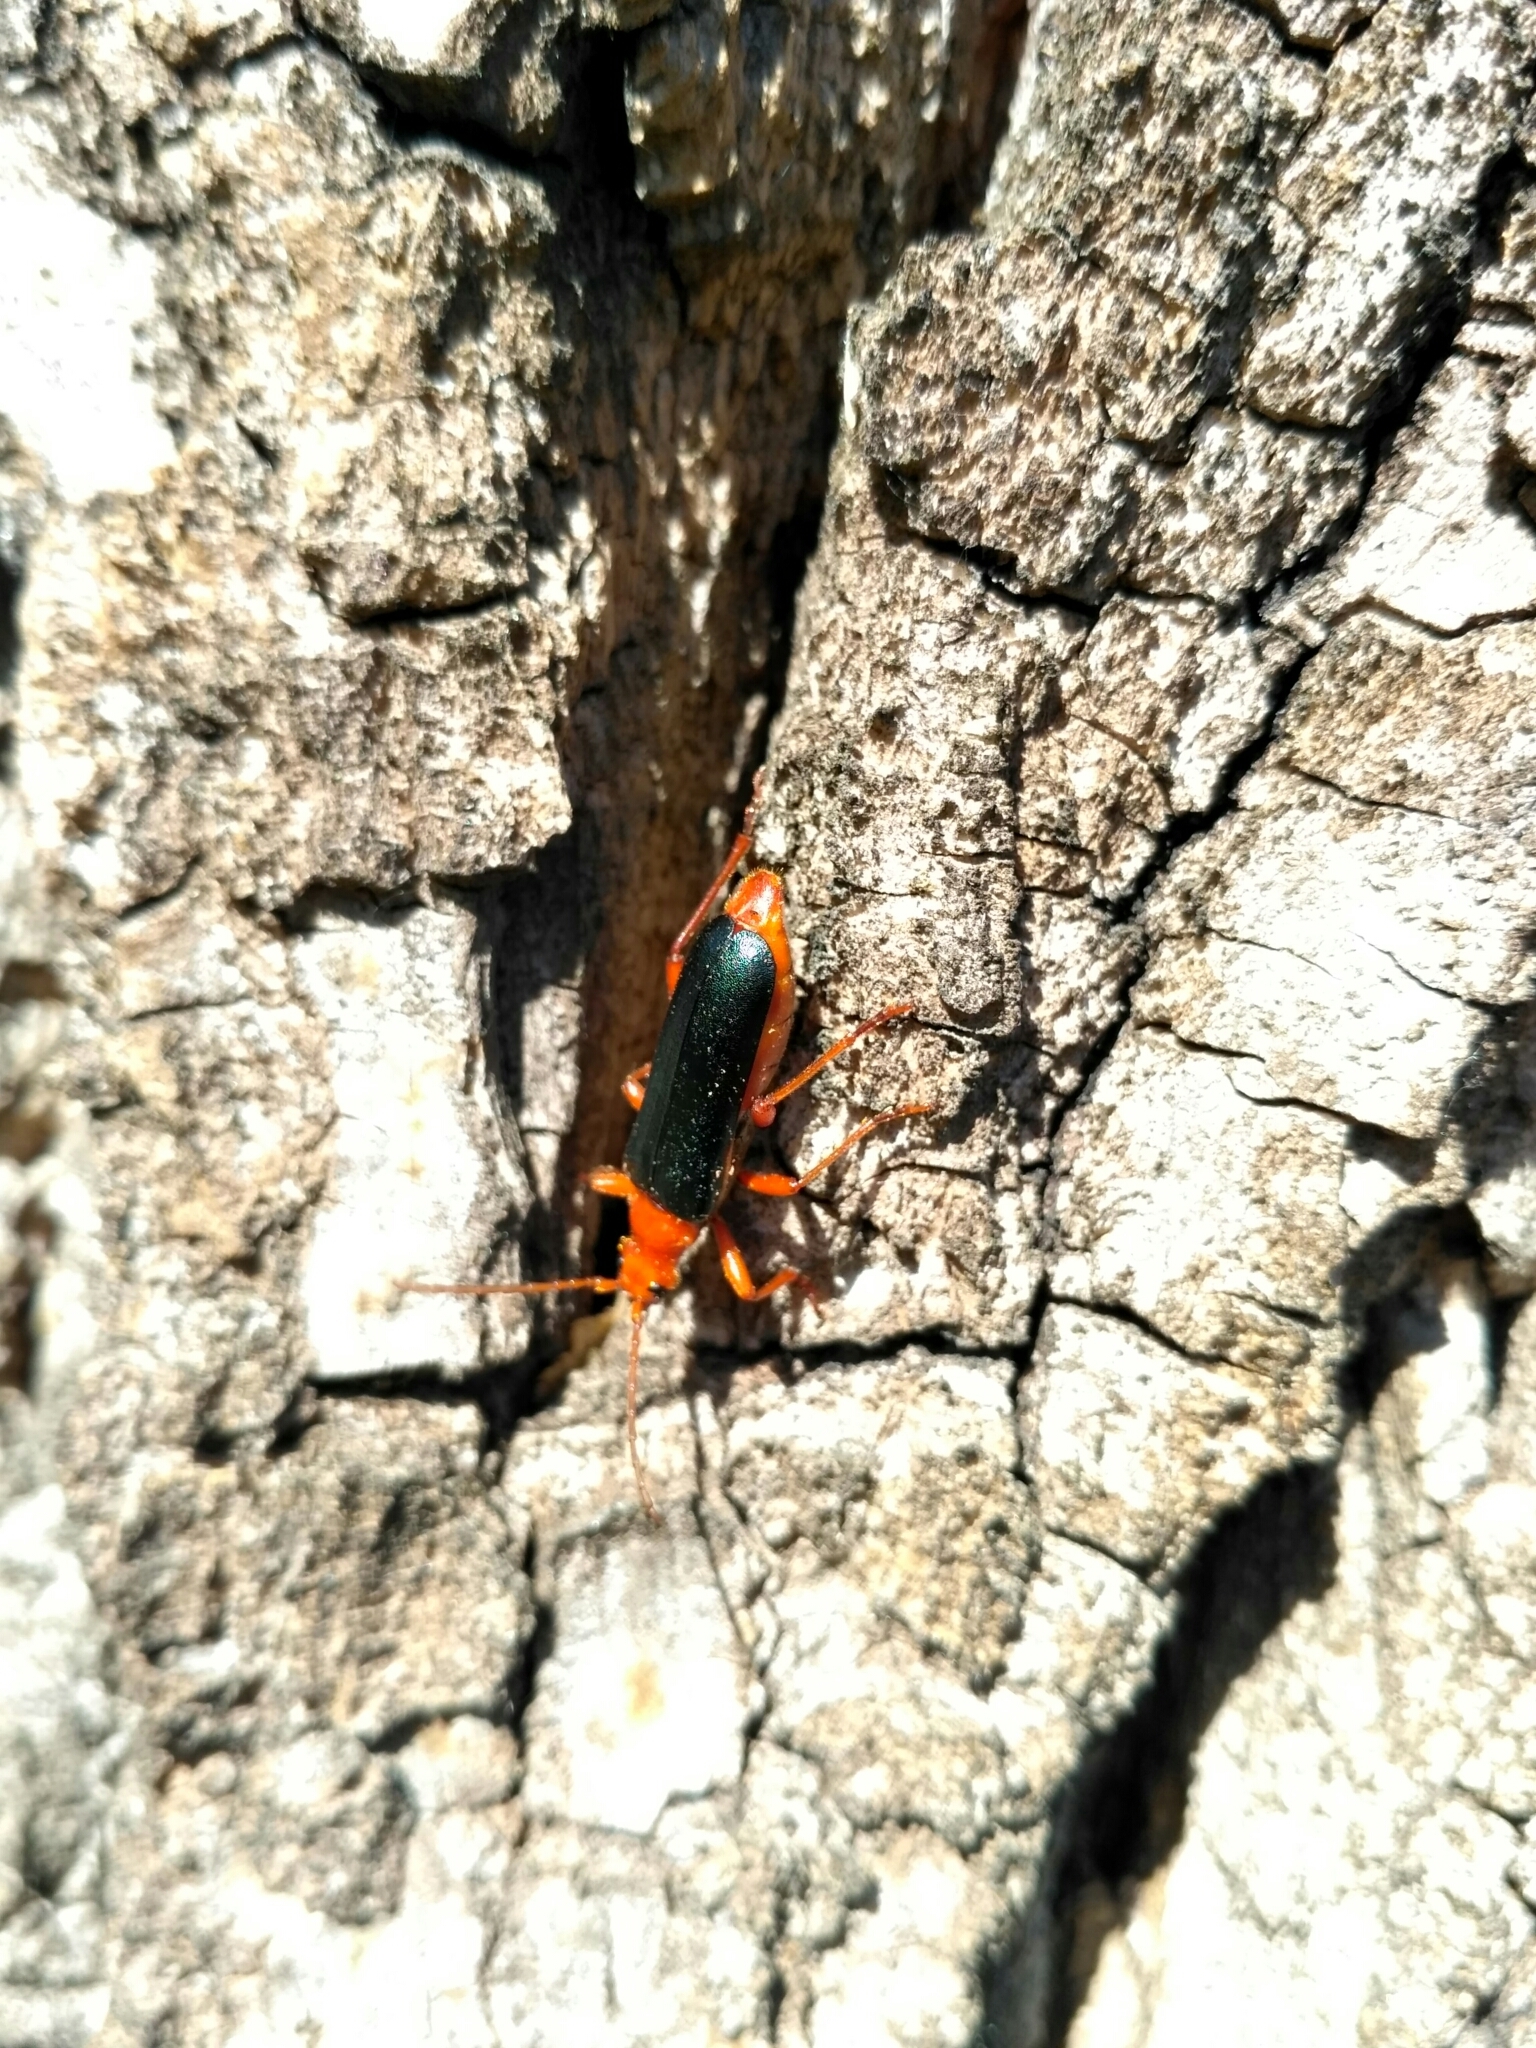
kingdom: Animalia
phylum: Arthropoda
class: Insecta
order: Coleoptera
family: Cerambycidae
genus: Rhamnusium
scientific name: Rhamnusium bicolor
